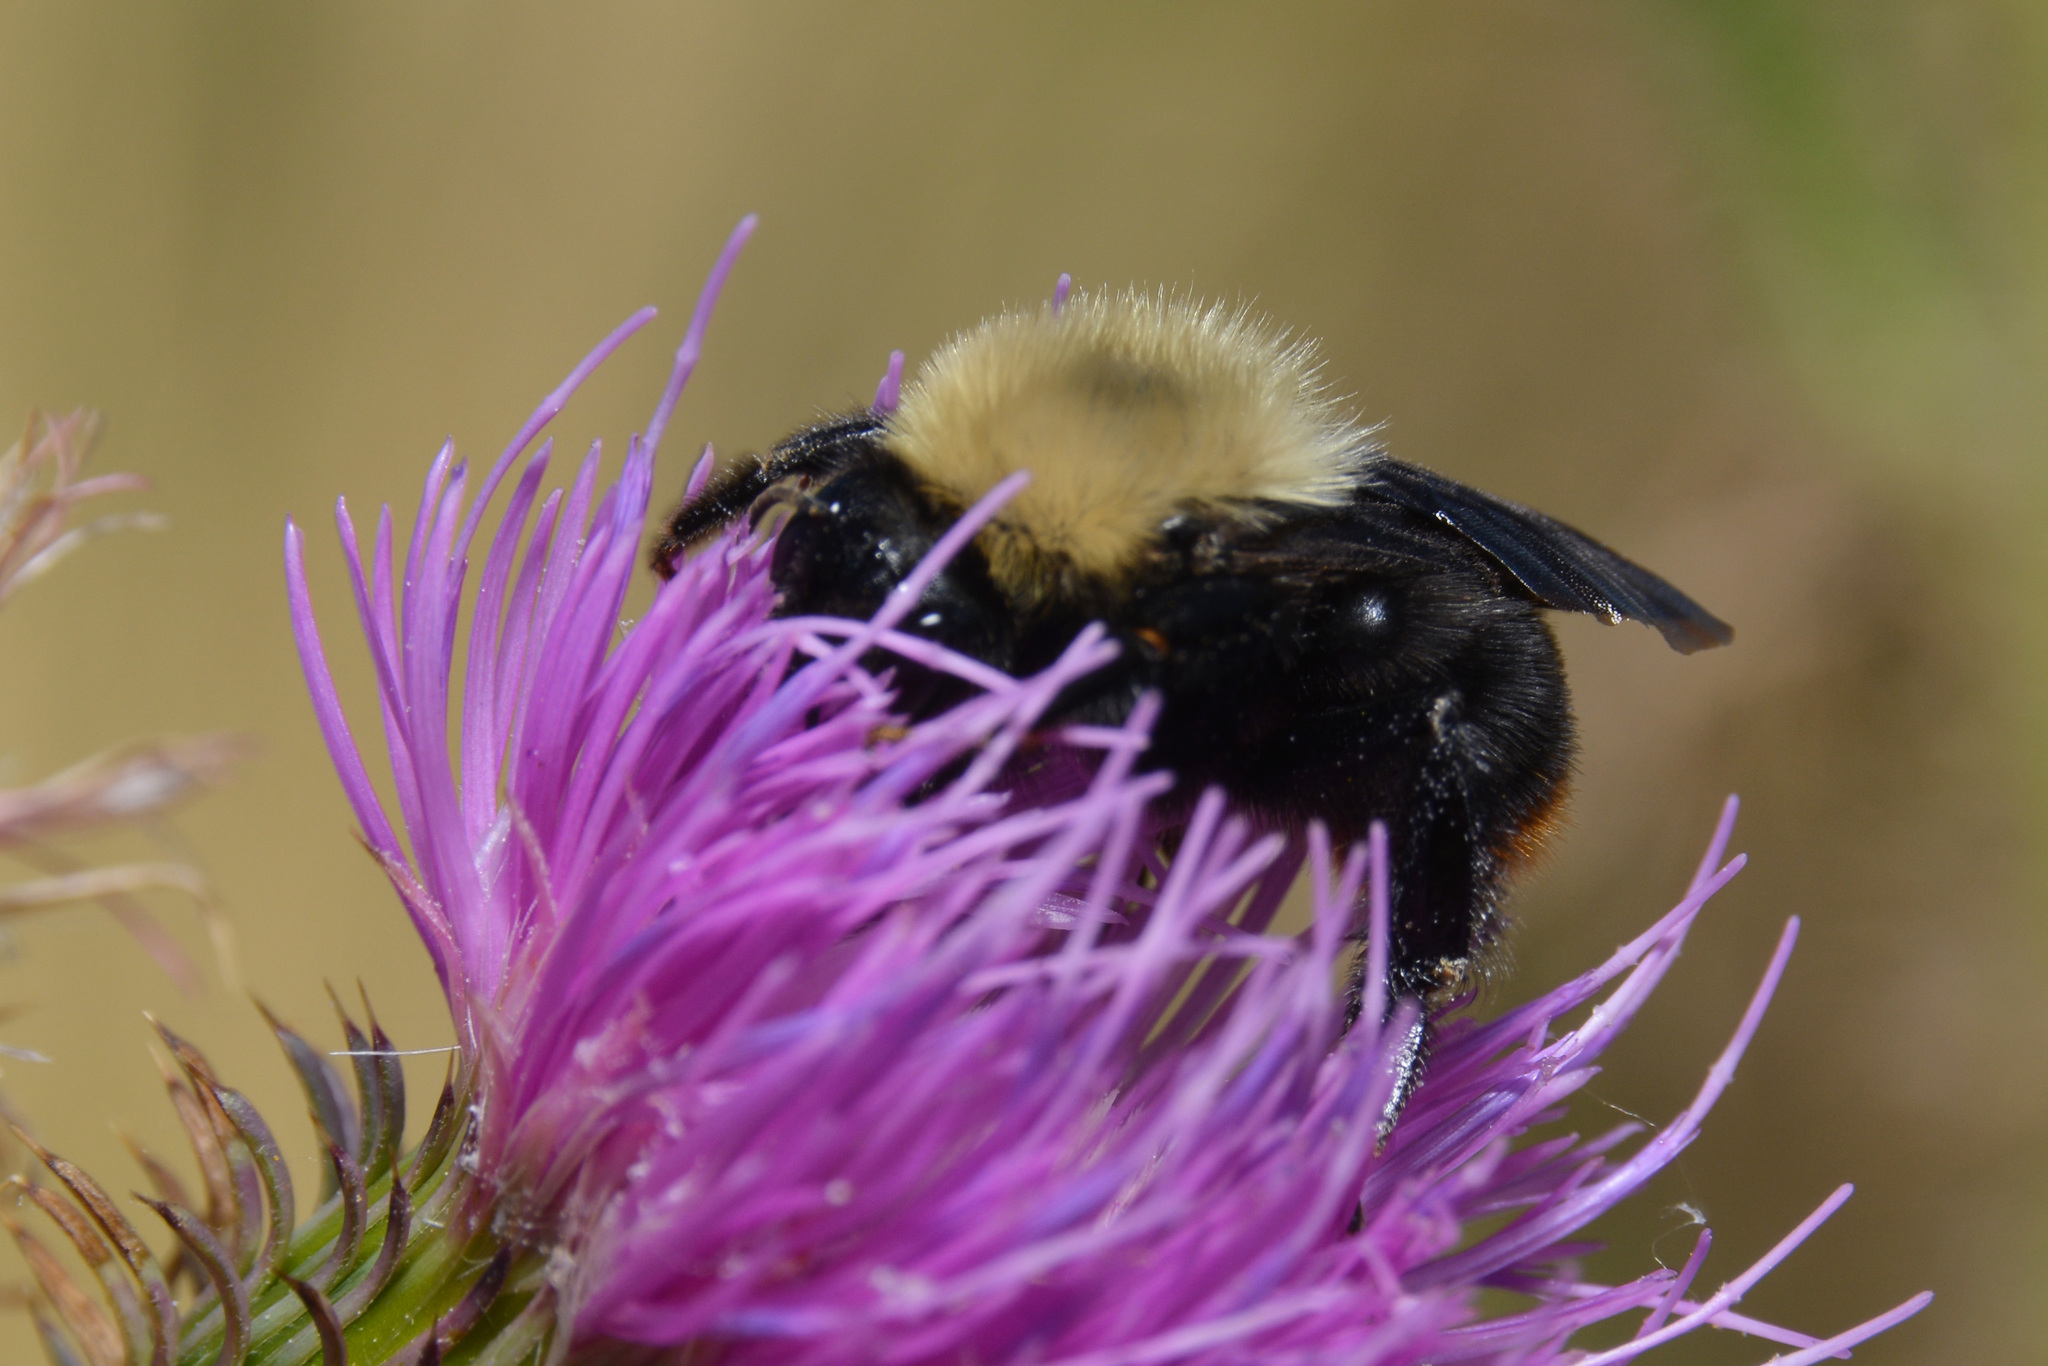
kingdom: Animalia
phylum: Arthropoda
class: Insecta
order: Hymenoptera
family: Apidae
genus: Bombus
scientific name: Bombus bellicosus
